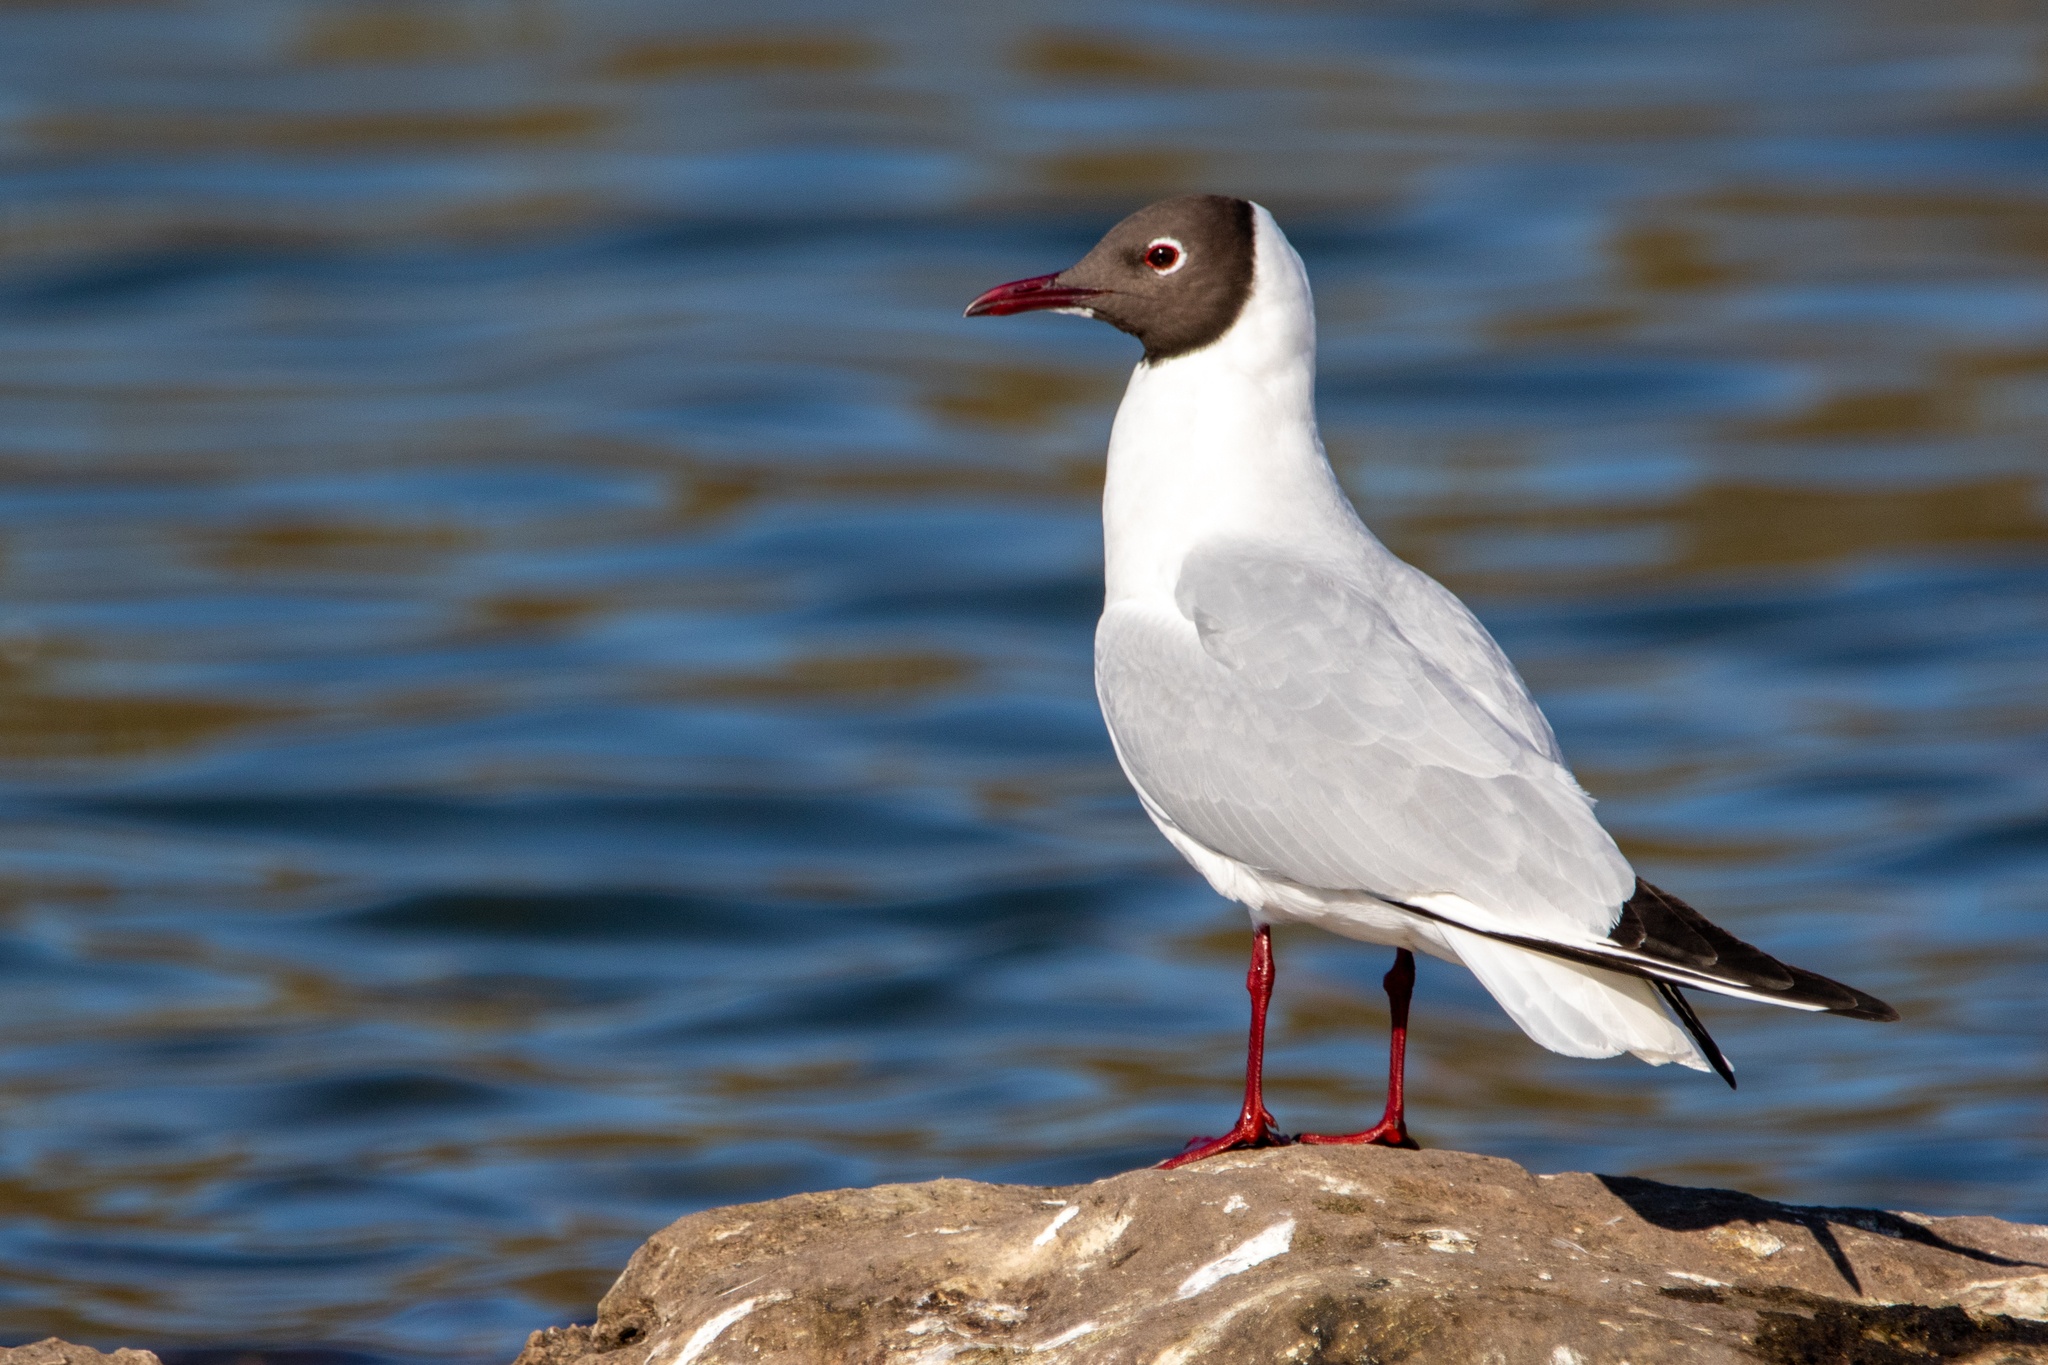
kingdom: Animalia
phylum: Chordata
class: Aves
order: Charadriiformes
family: Laridae
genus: Chroicocephalus
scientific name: Chroicocephalus ridibundus
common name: Black-headed gull
